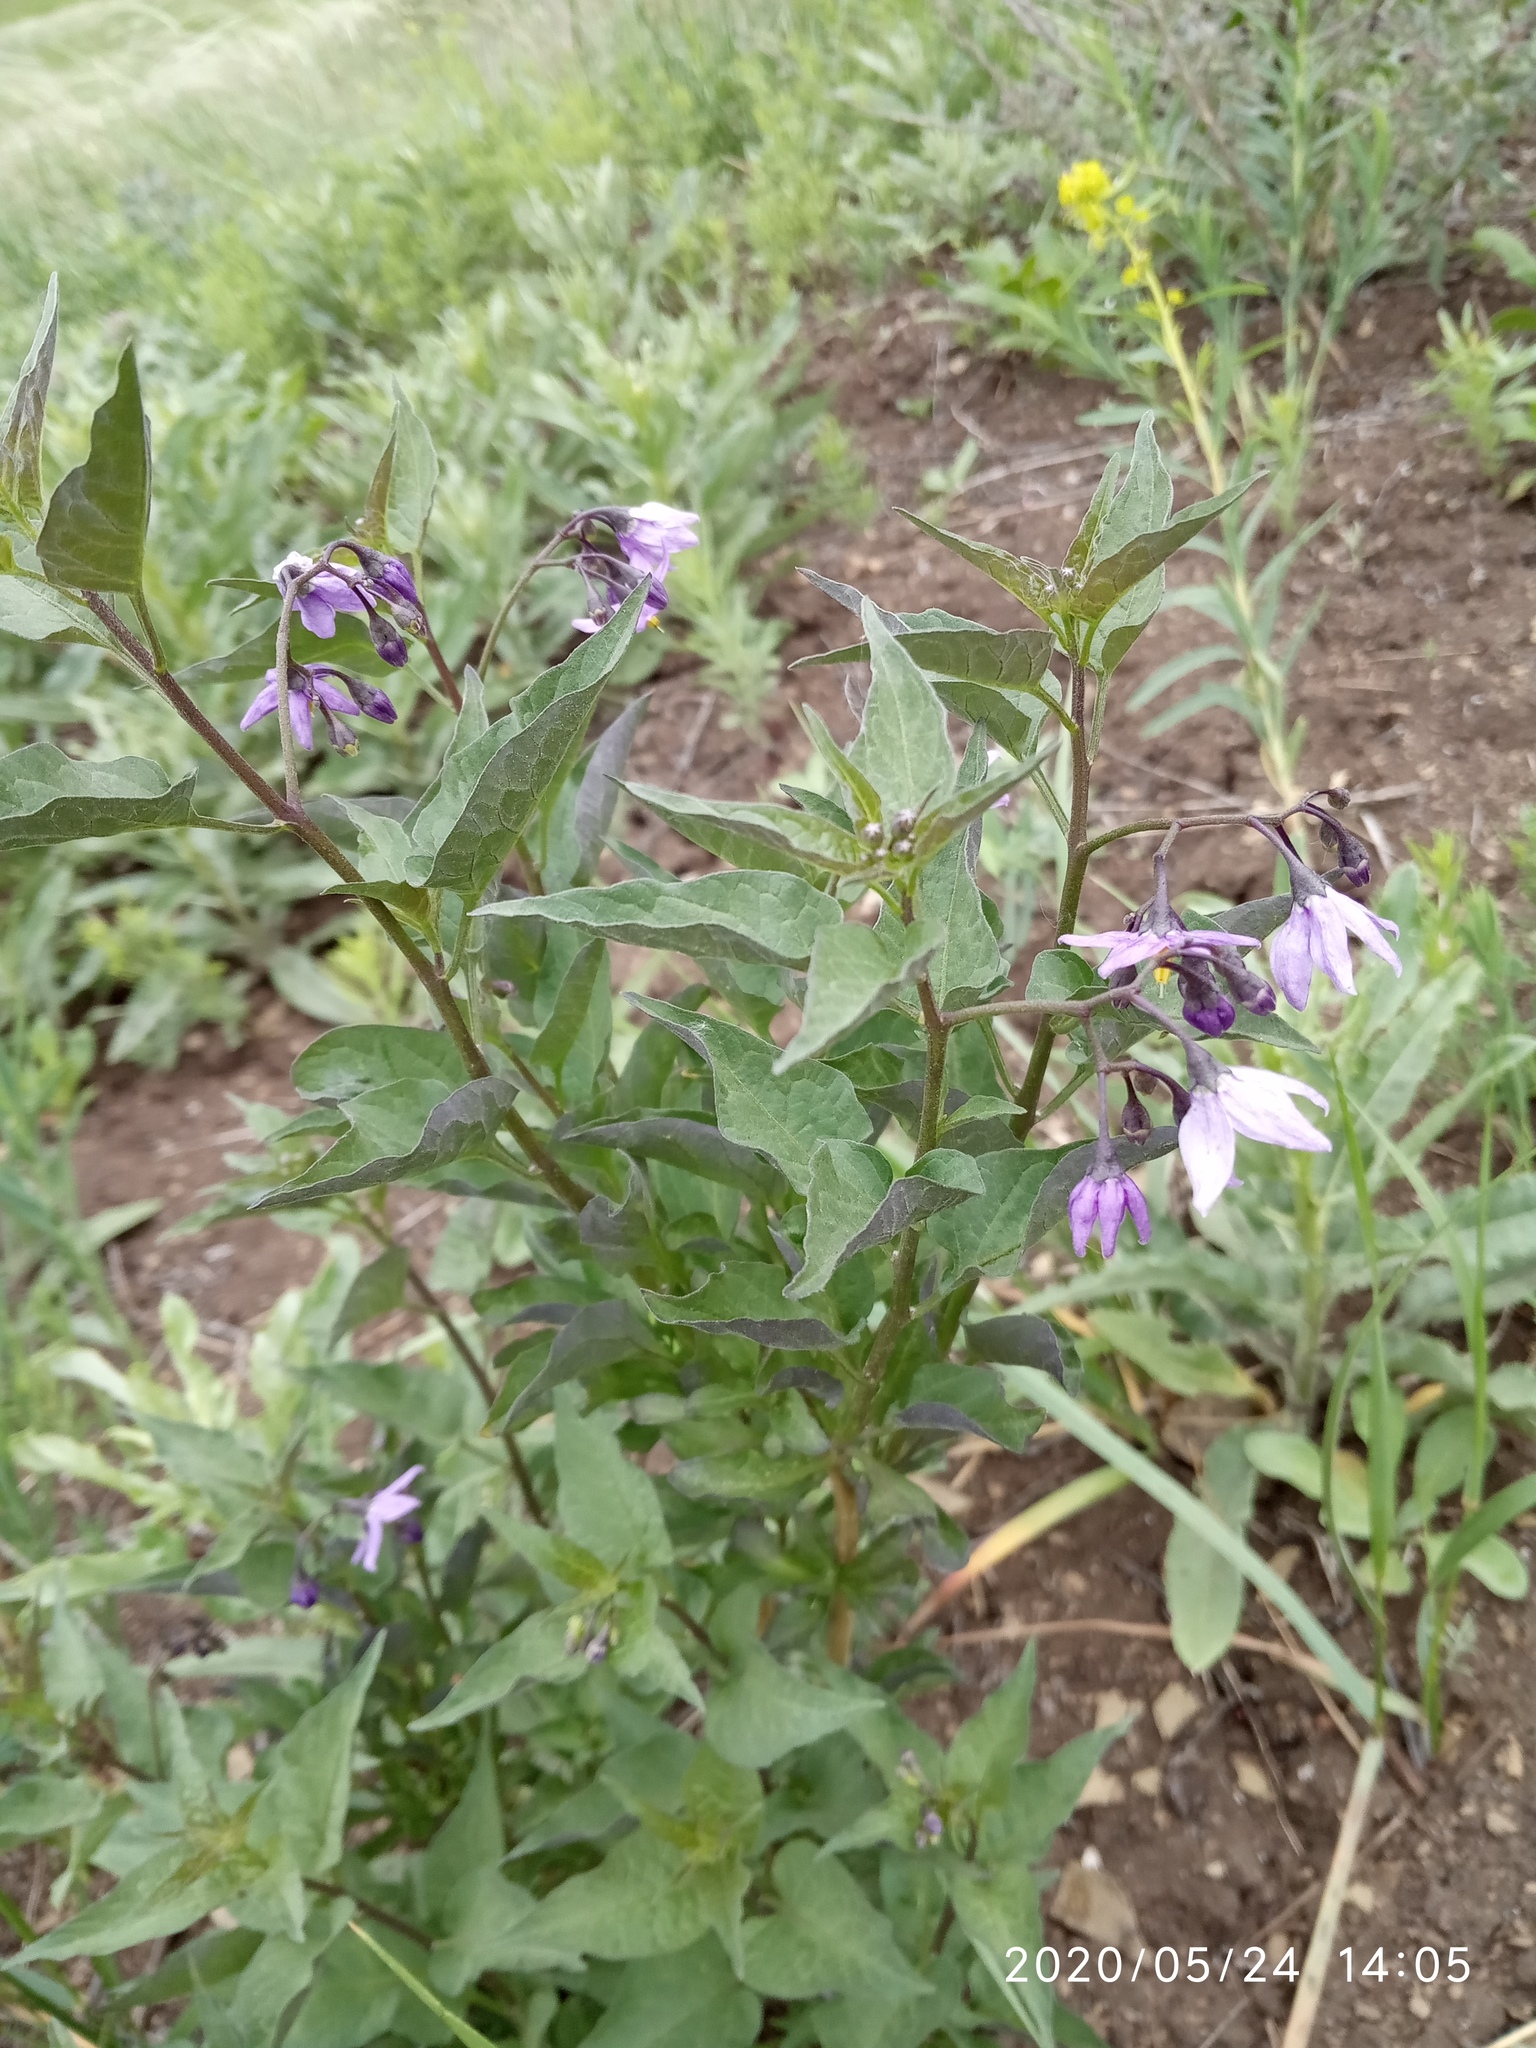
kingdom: Plantae
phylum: Tracheophyta
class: Magnoliopsida
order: Solanales
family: Solanaceae
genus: Solanum
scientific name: Solanum dulcamara
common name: Climbing nightshade
